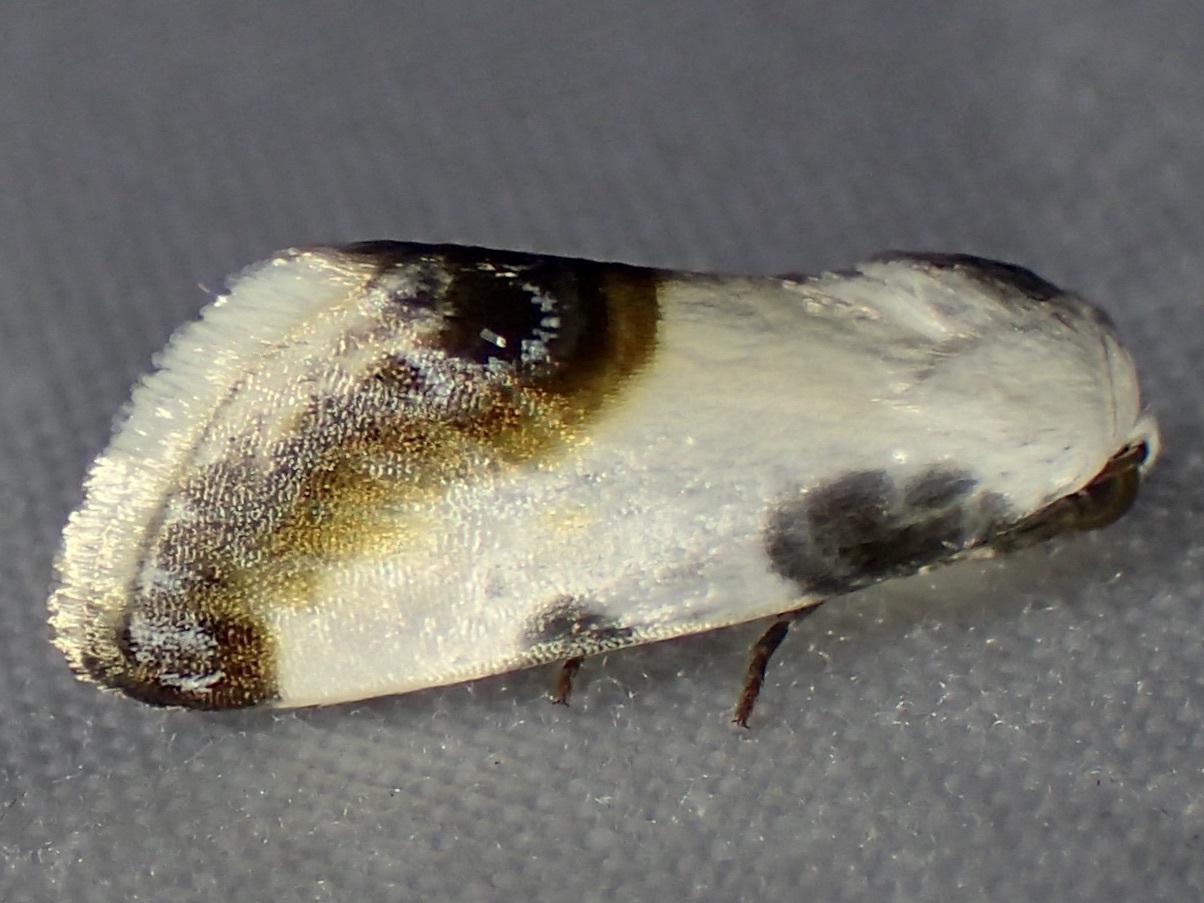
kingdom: Animalia
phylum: Arthropoda
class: Insecta
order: Lepidoptera
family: Noctuidae
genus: Acontia
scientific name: Acontia chea
